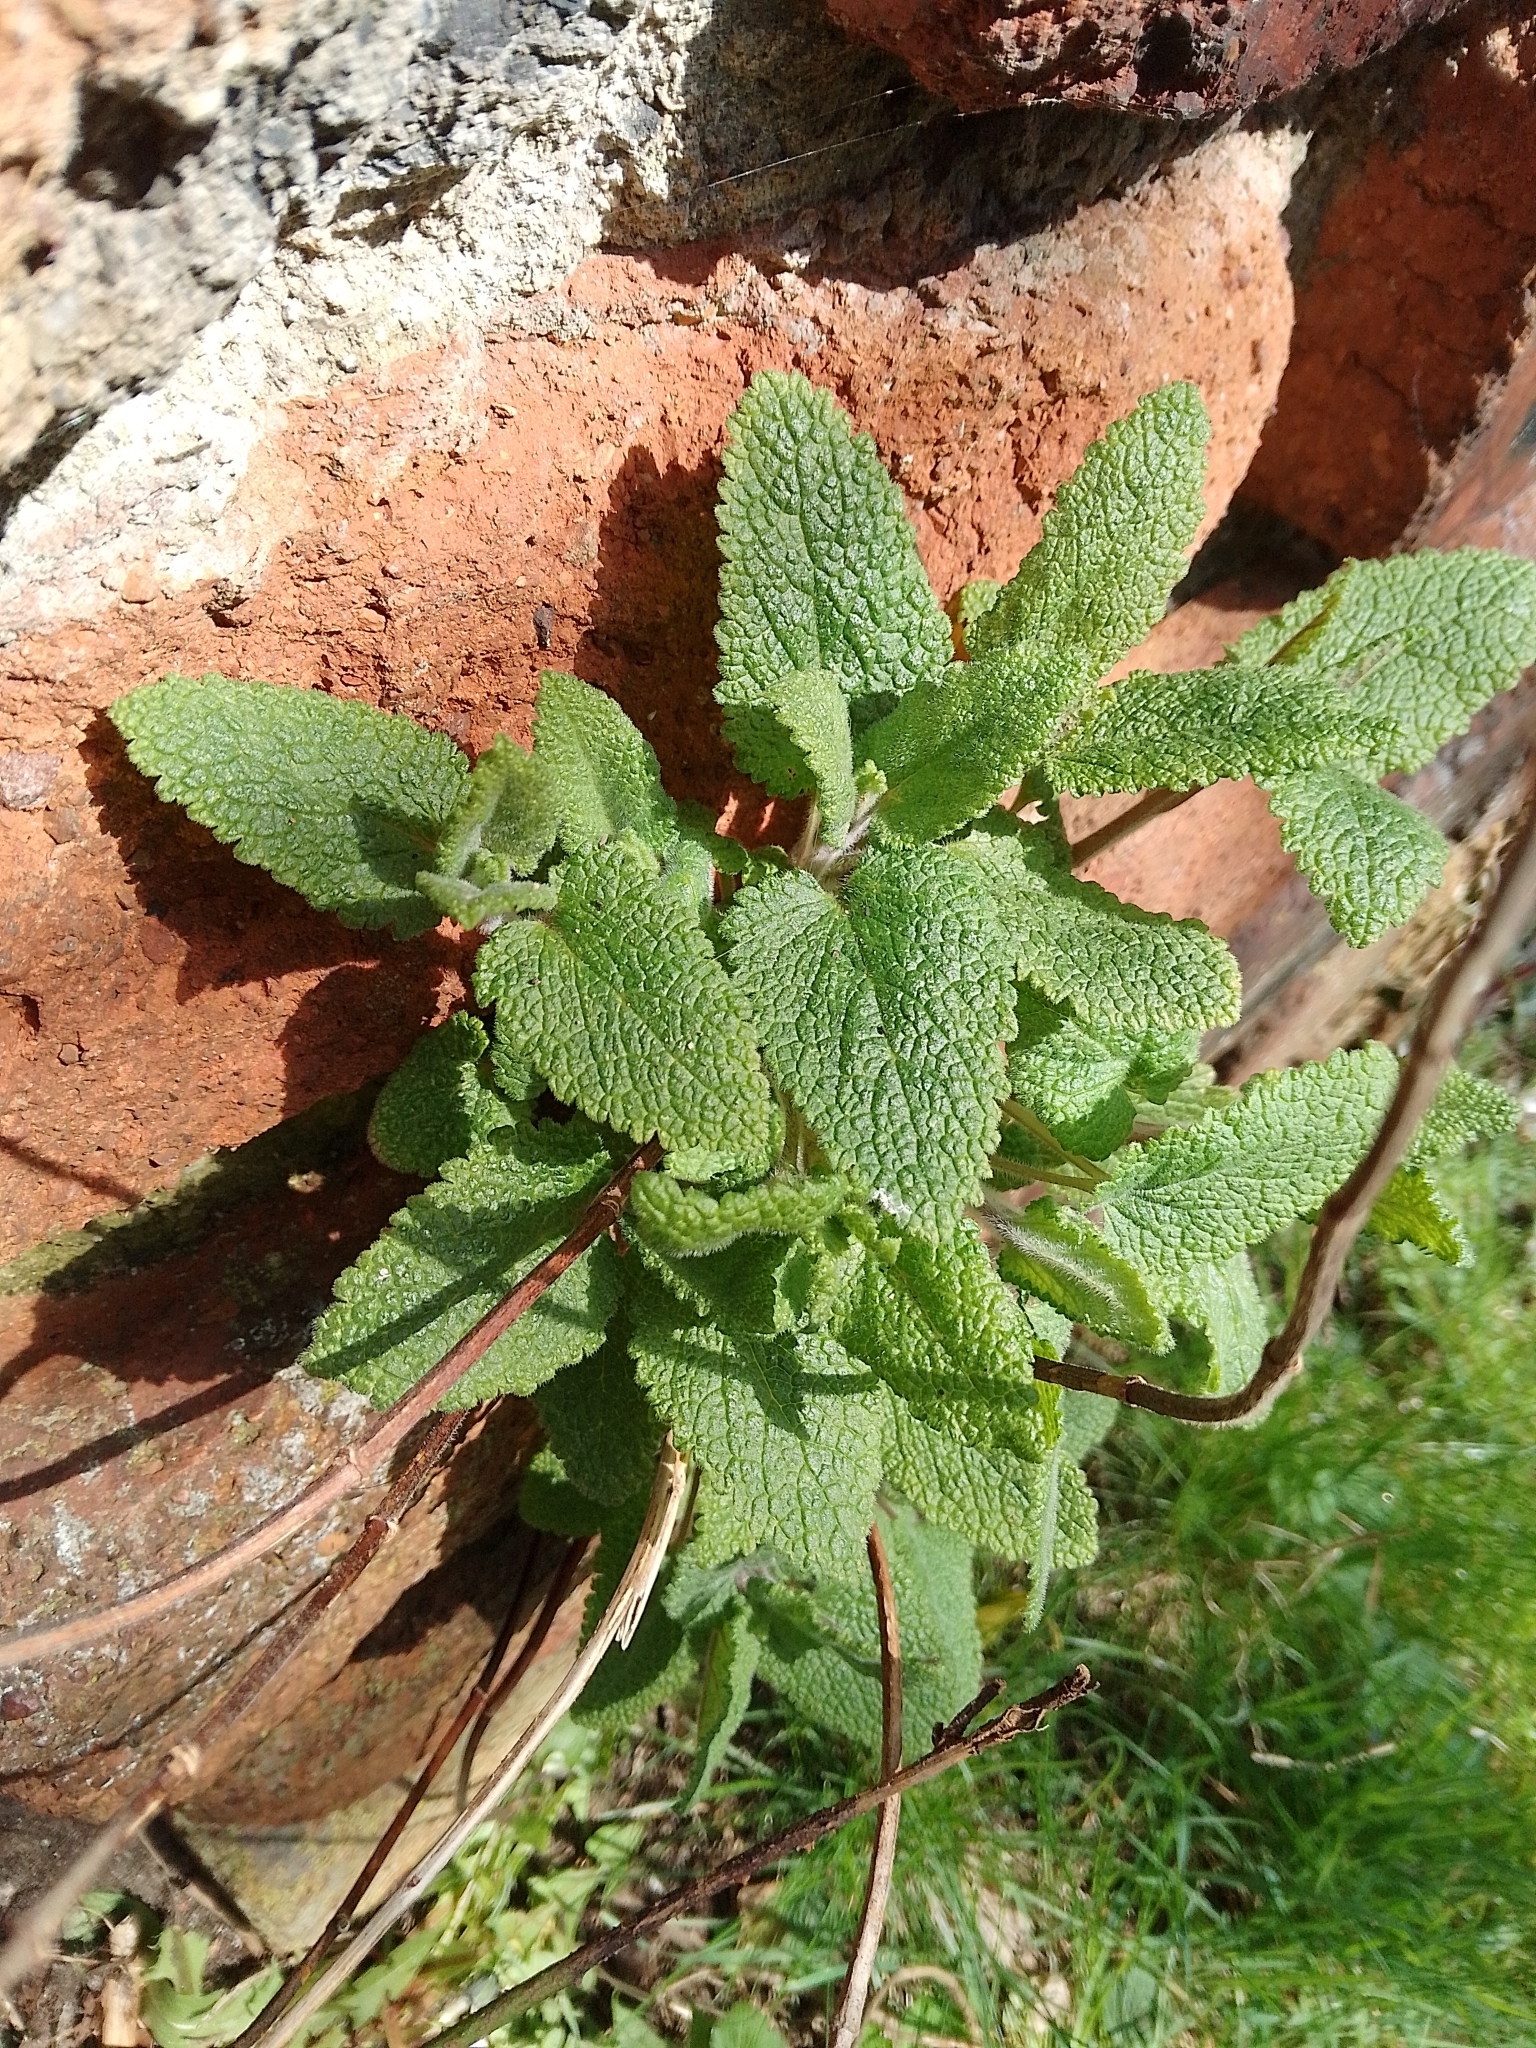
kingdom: Plantae
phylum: Tracheophyta
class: Magnoliopsida
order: Lamiales
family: Lamiaceae
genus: Teucrium
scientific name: Teucrium scorodonia
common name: Woodland germander
